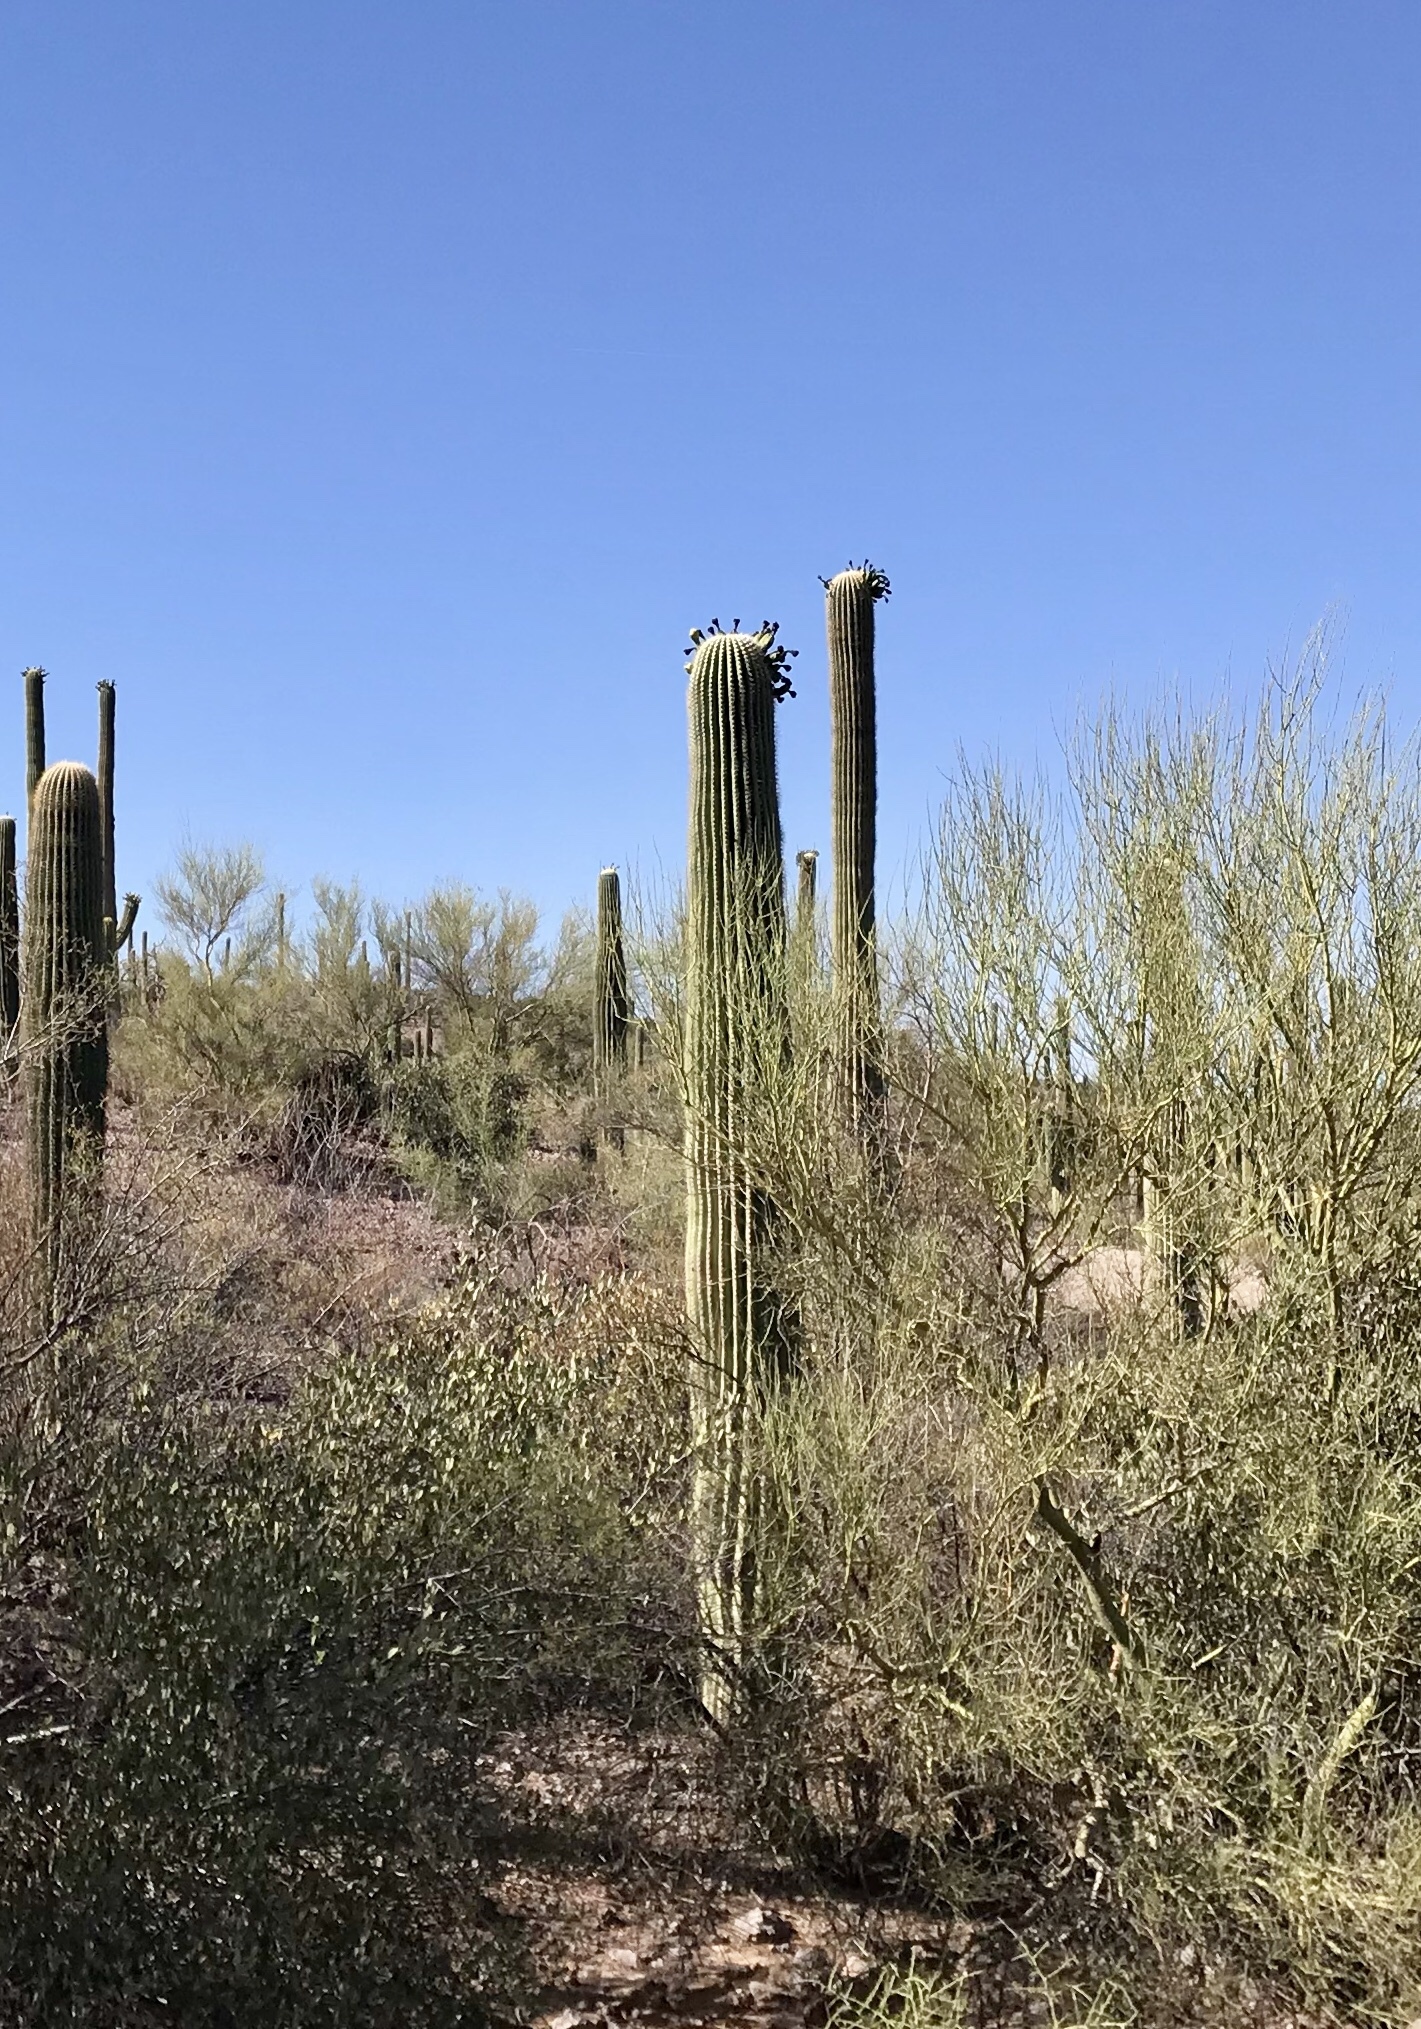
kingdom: Plantae
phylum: Tracheophyta
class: Magnoliopsida
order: Caryophyllales
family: Cactaceae
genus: Carnegiea
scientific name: Carnegiea gigantea
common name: Saguaro
